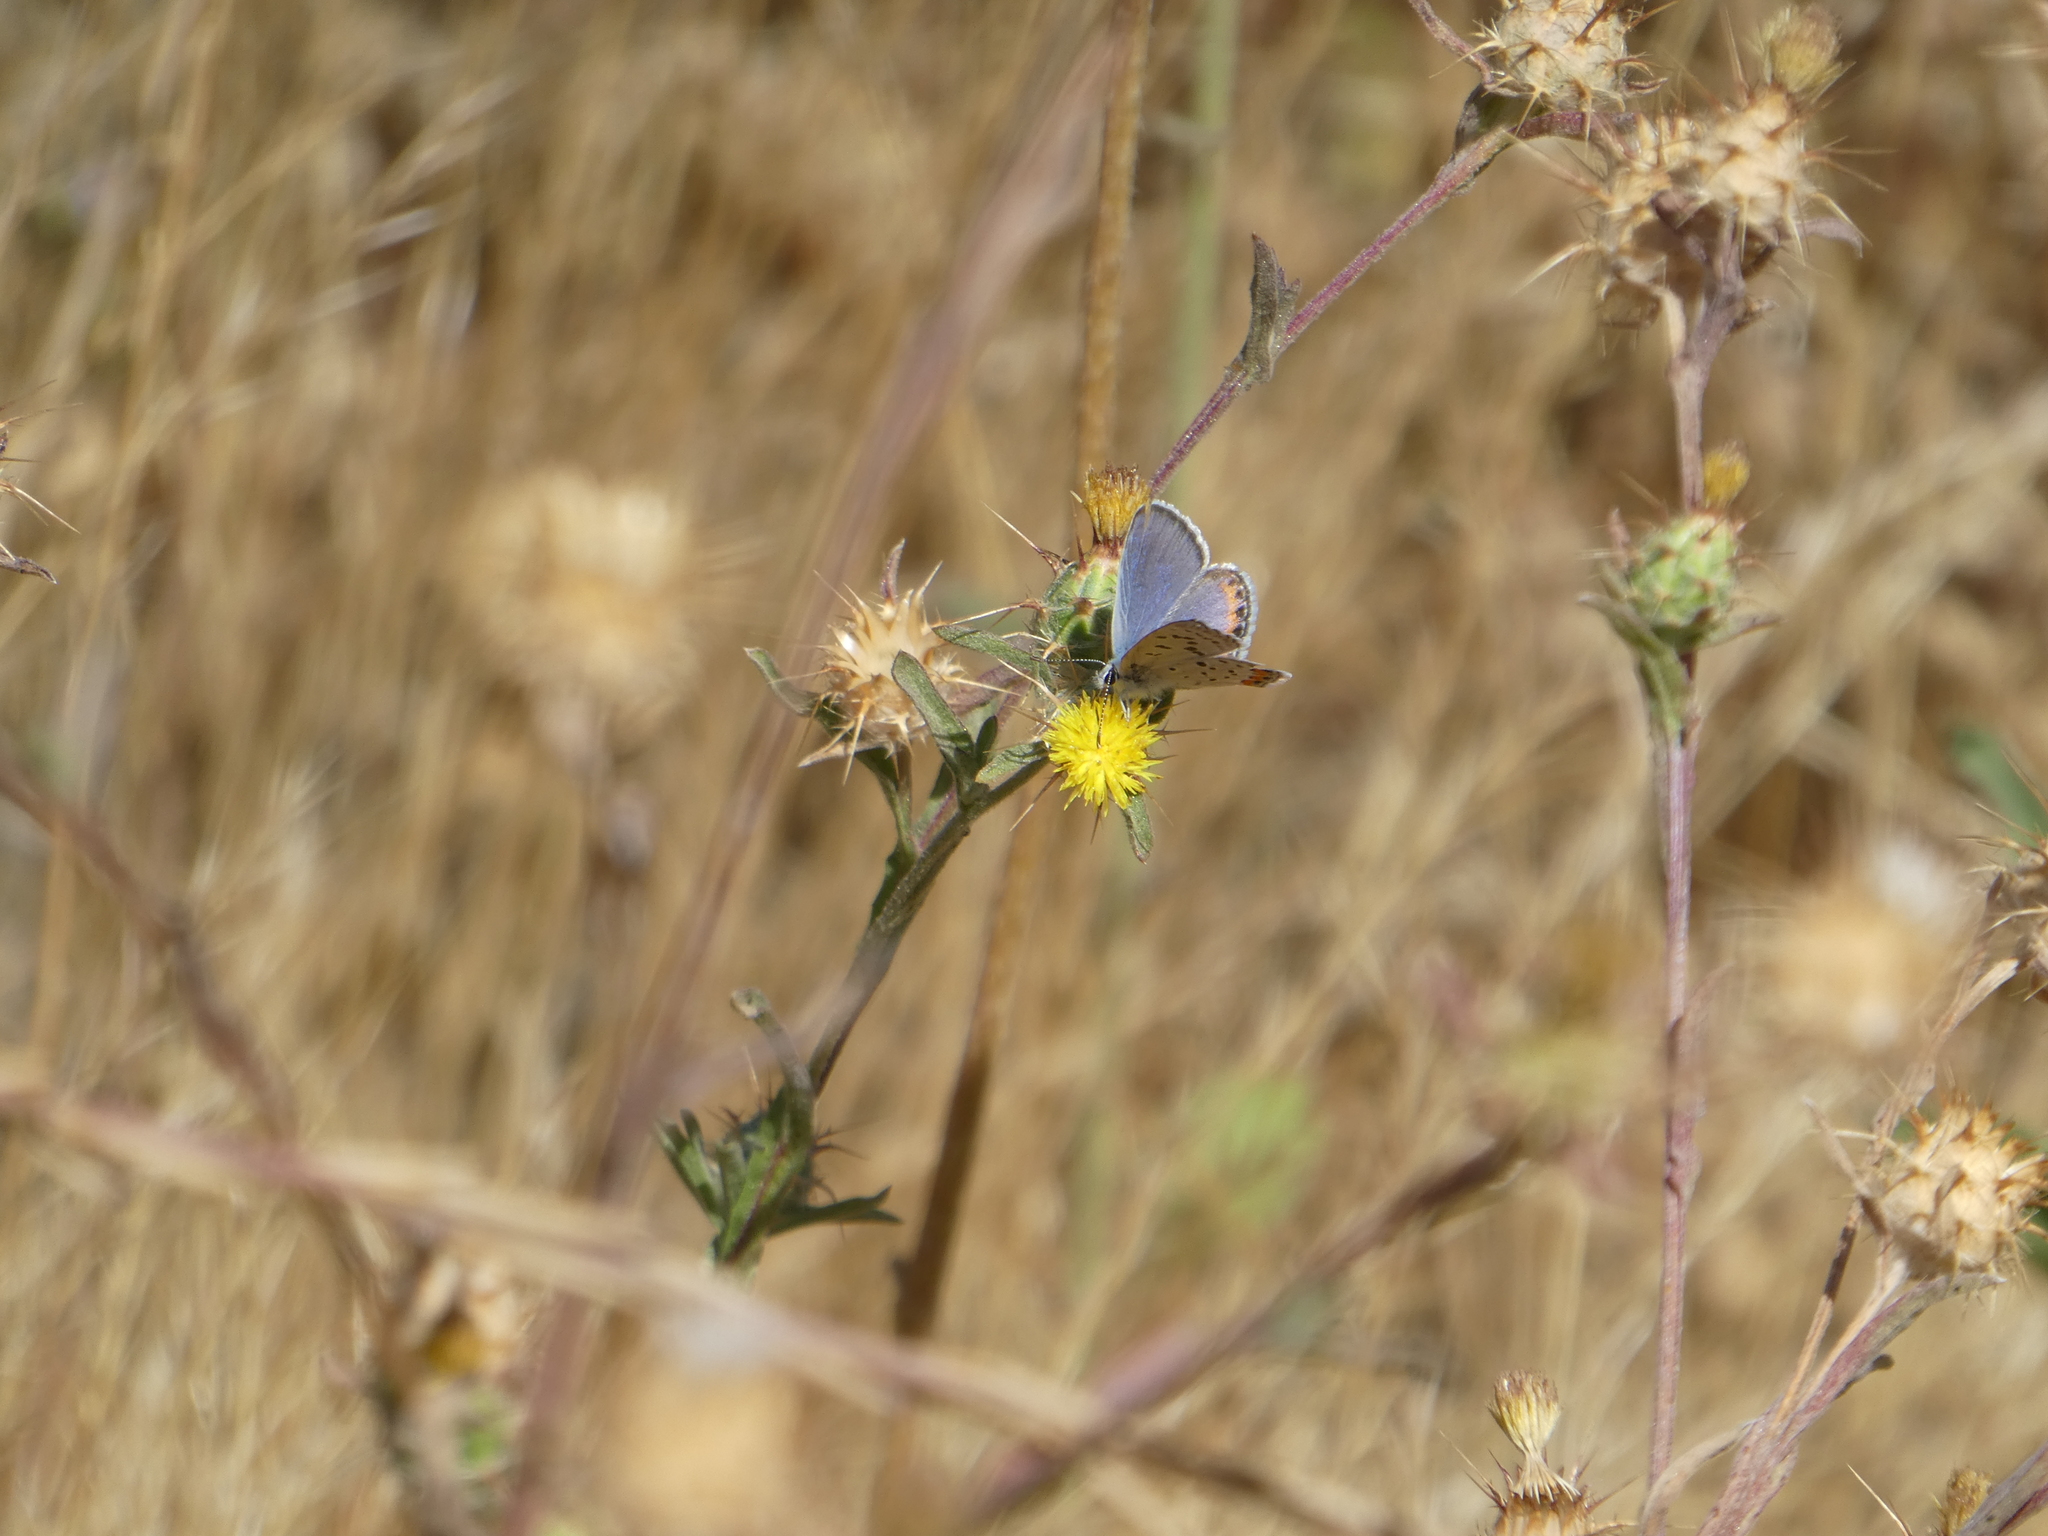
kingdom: Animalia
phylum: Arthropoda
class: Insecta
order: Lepidoptera
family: Lycaenidae
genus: Icaricia
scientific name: Icaricia acmon
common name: Acmon blue
